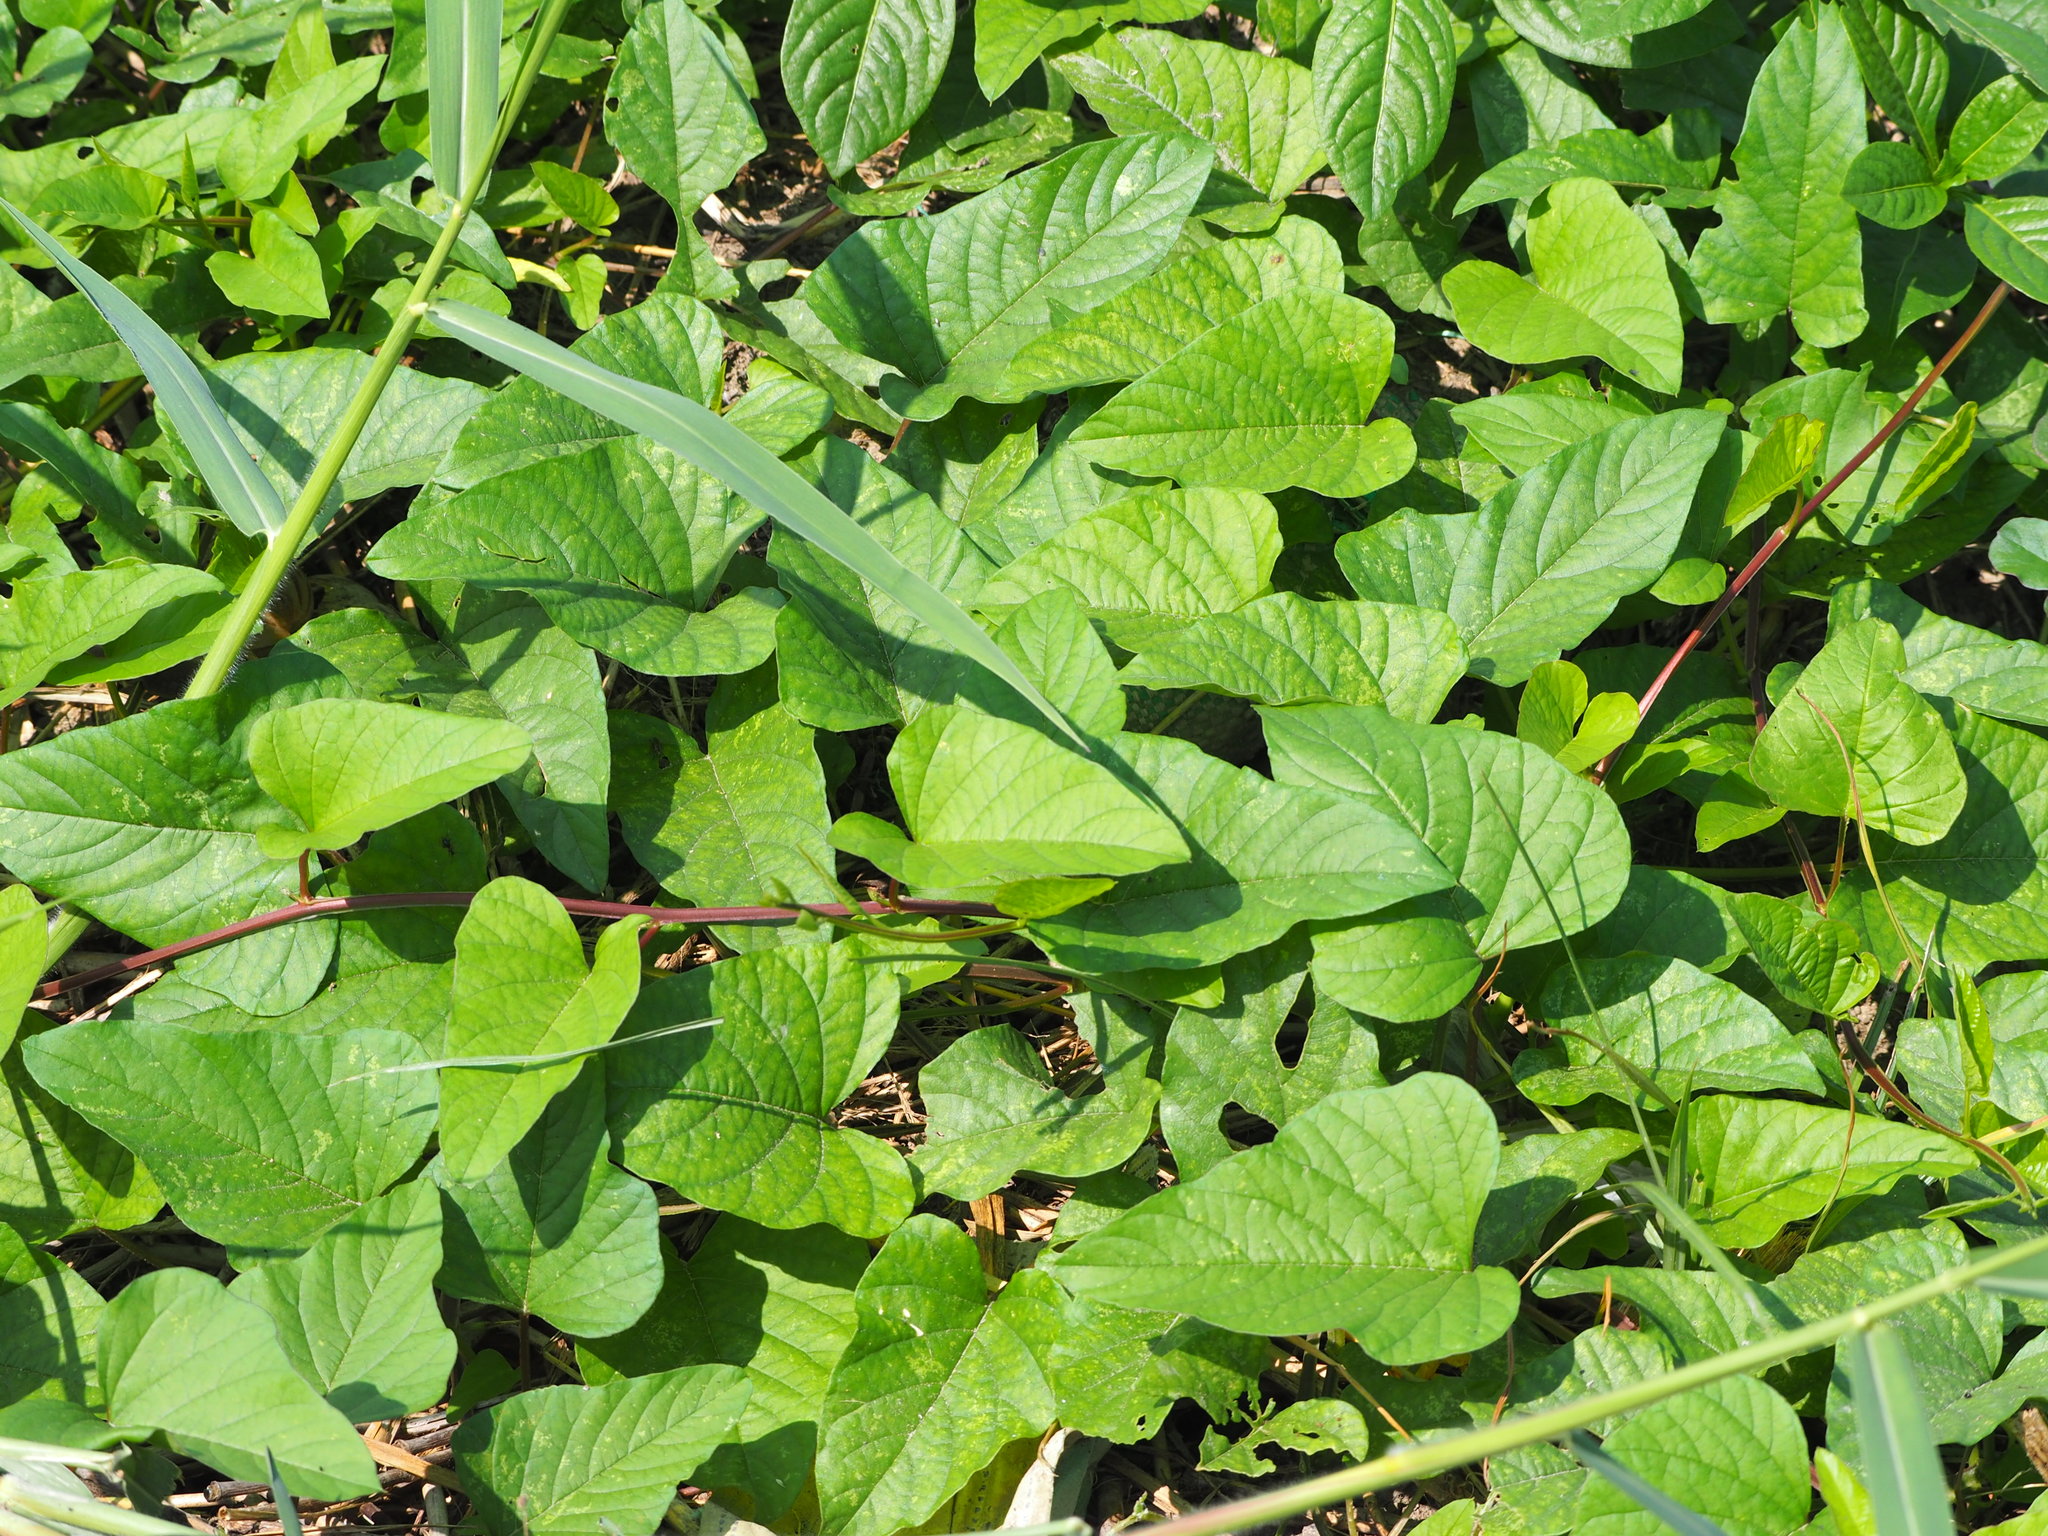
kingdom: Plantae
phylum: Tracheophyta
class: Magnoliopsida
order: Solanales
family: Convolvulaceae
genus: Operculina
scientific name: Operculina turpethum
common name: Transparent wood-rose
